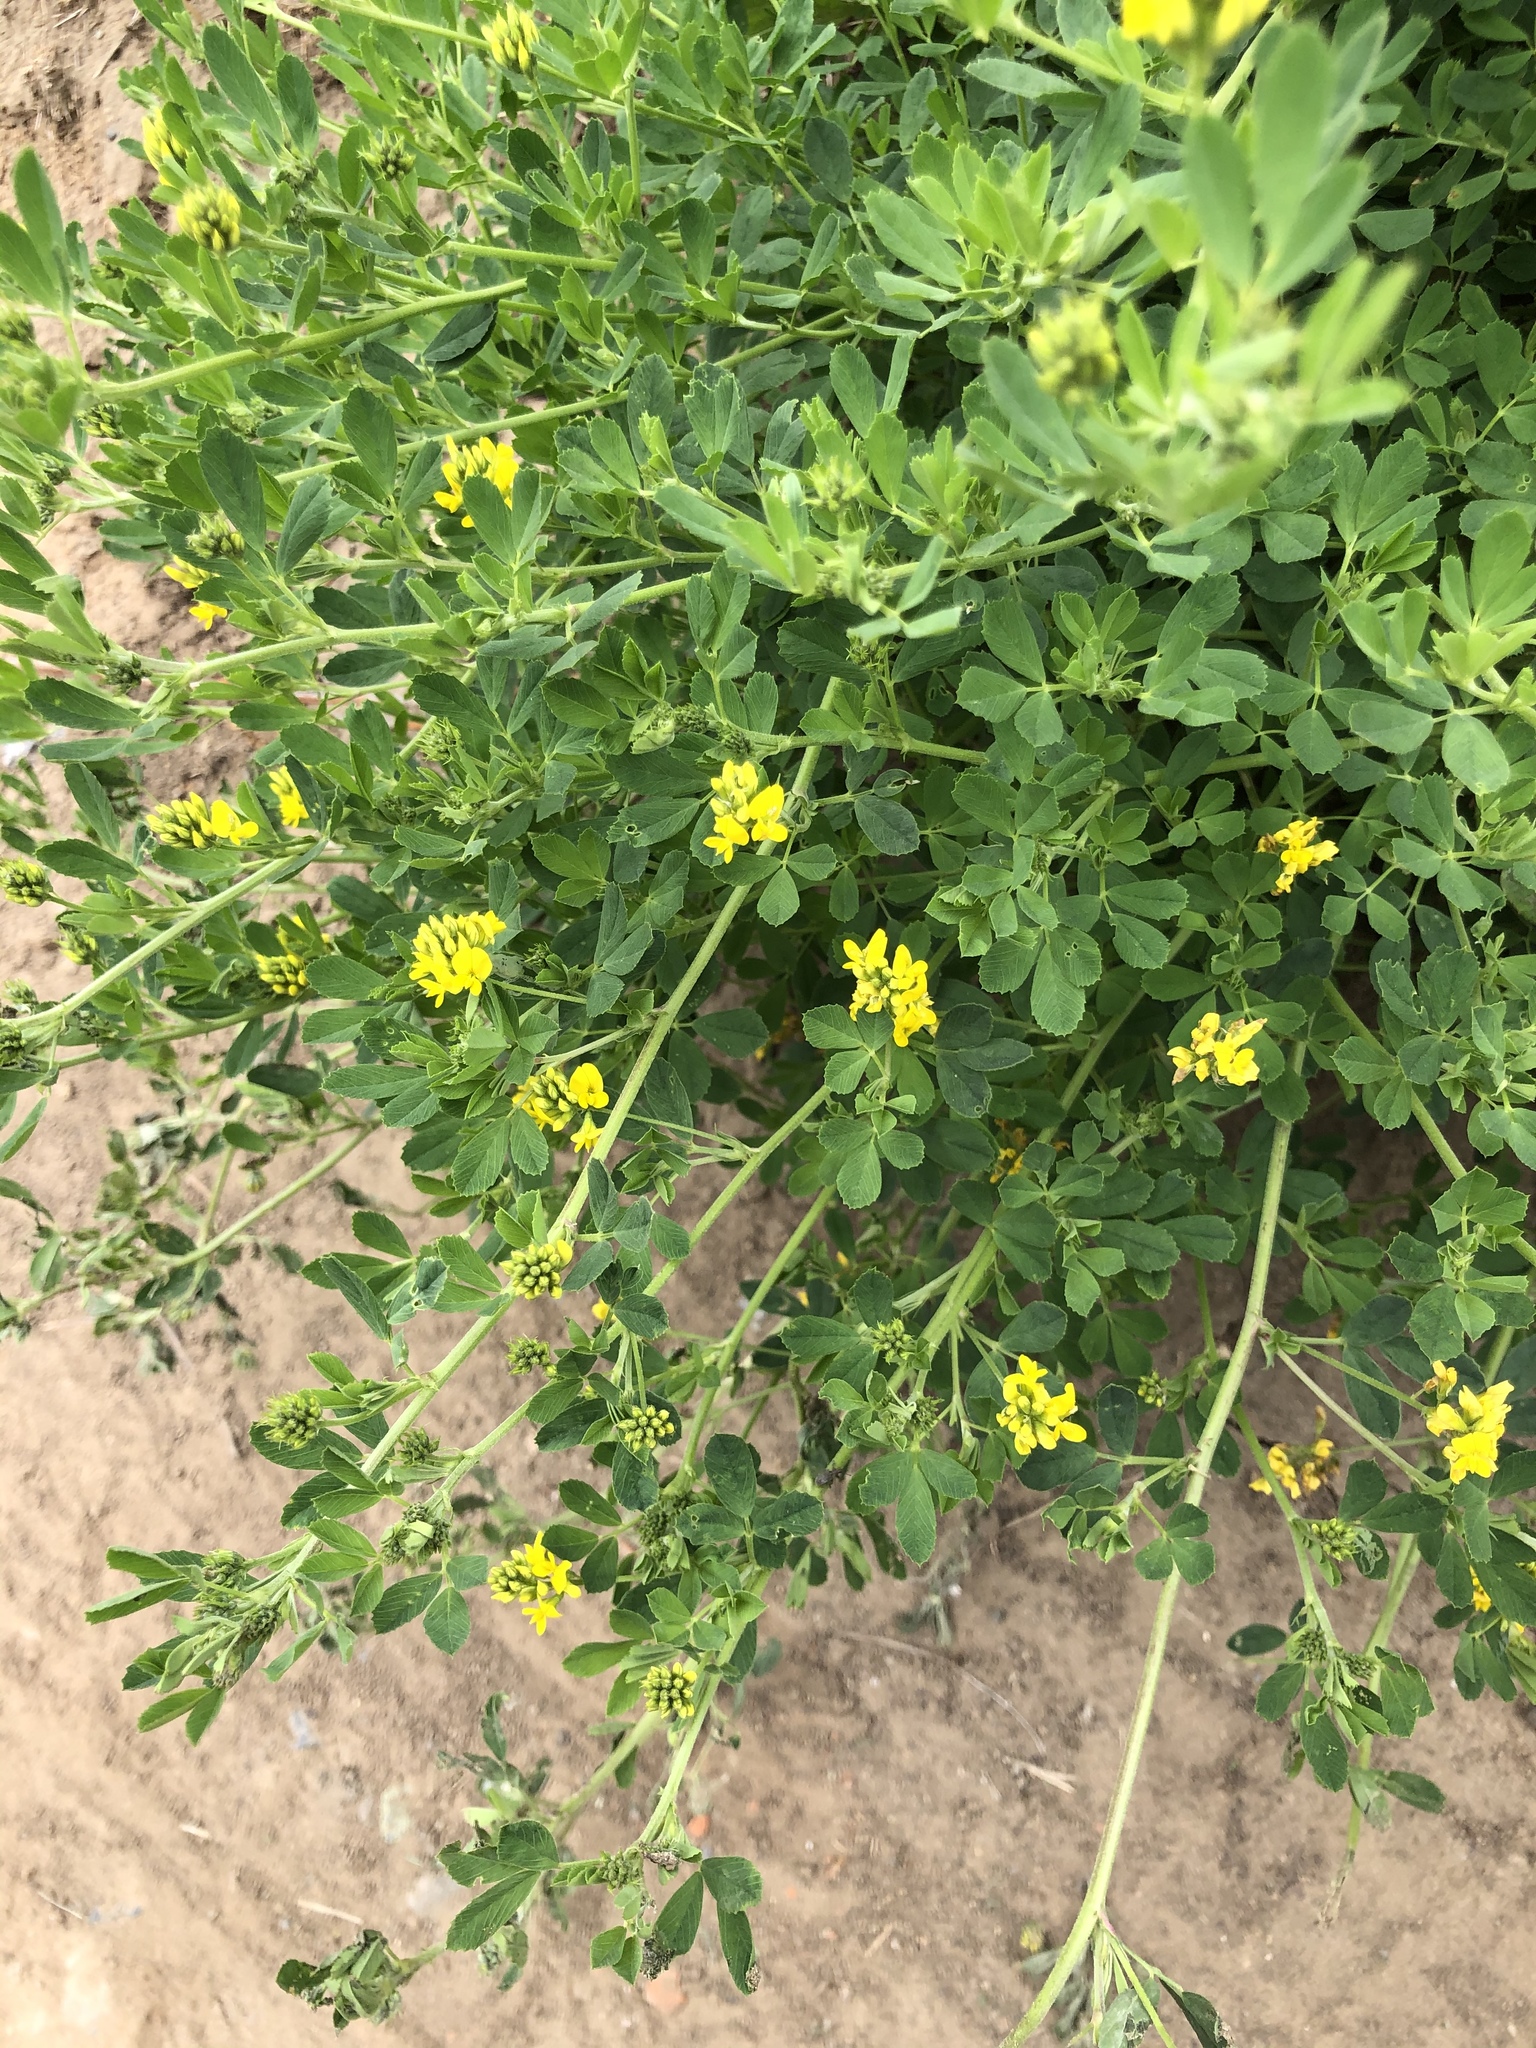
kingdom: Plantae
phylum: Tracheophyta
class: Magnoliopsida
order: Fabales
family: Fabaceae
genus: Medicago
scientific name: Medicago falcata
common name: Sickle medick
